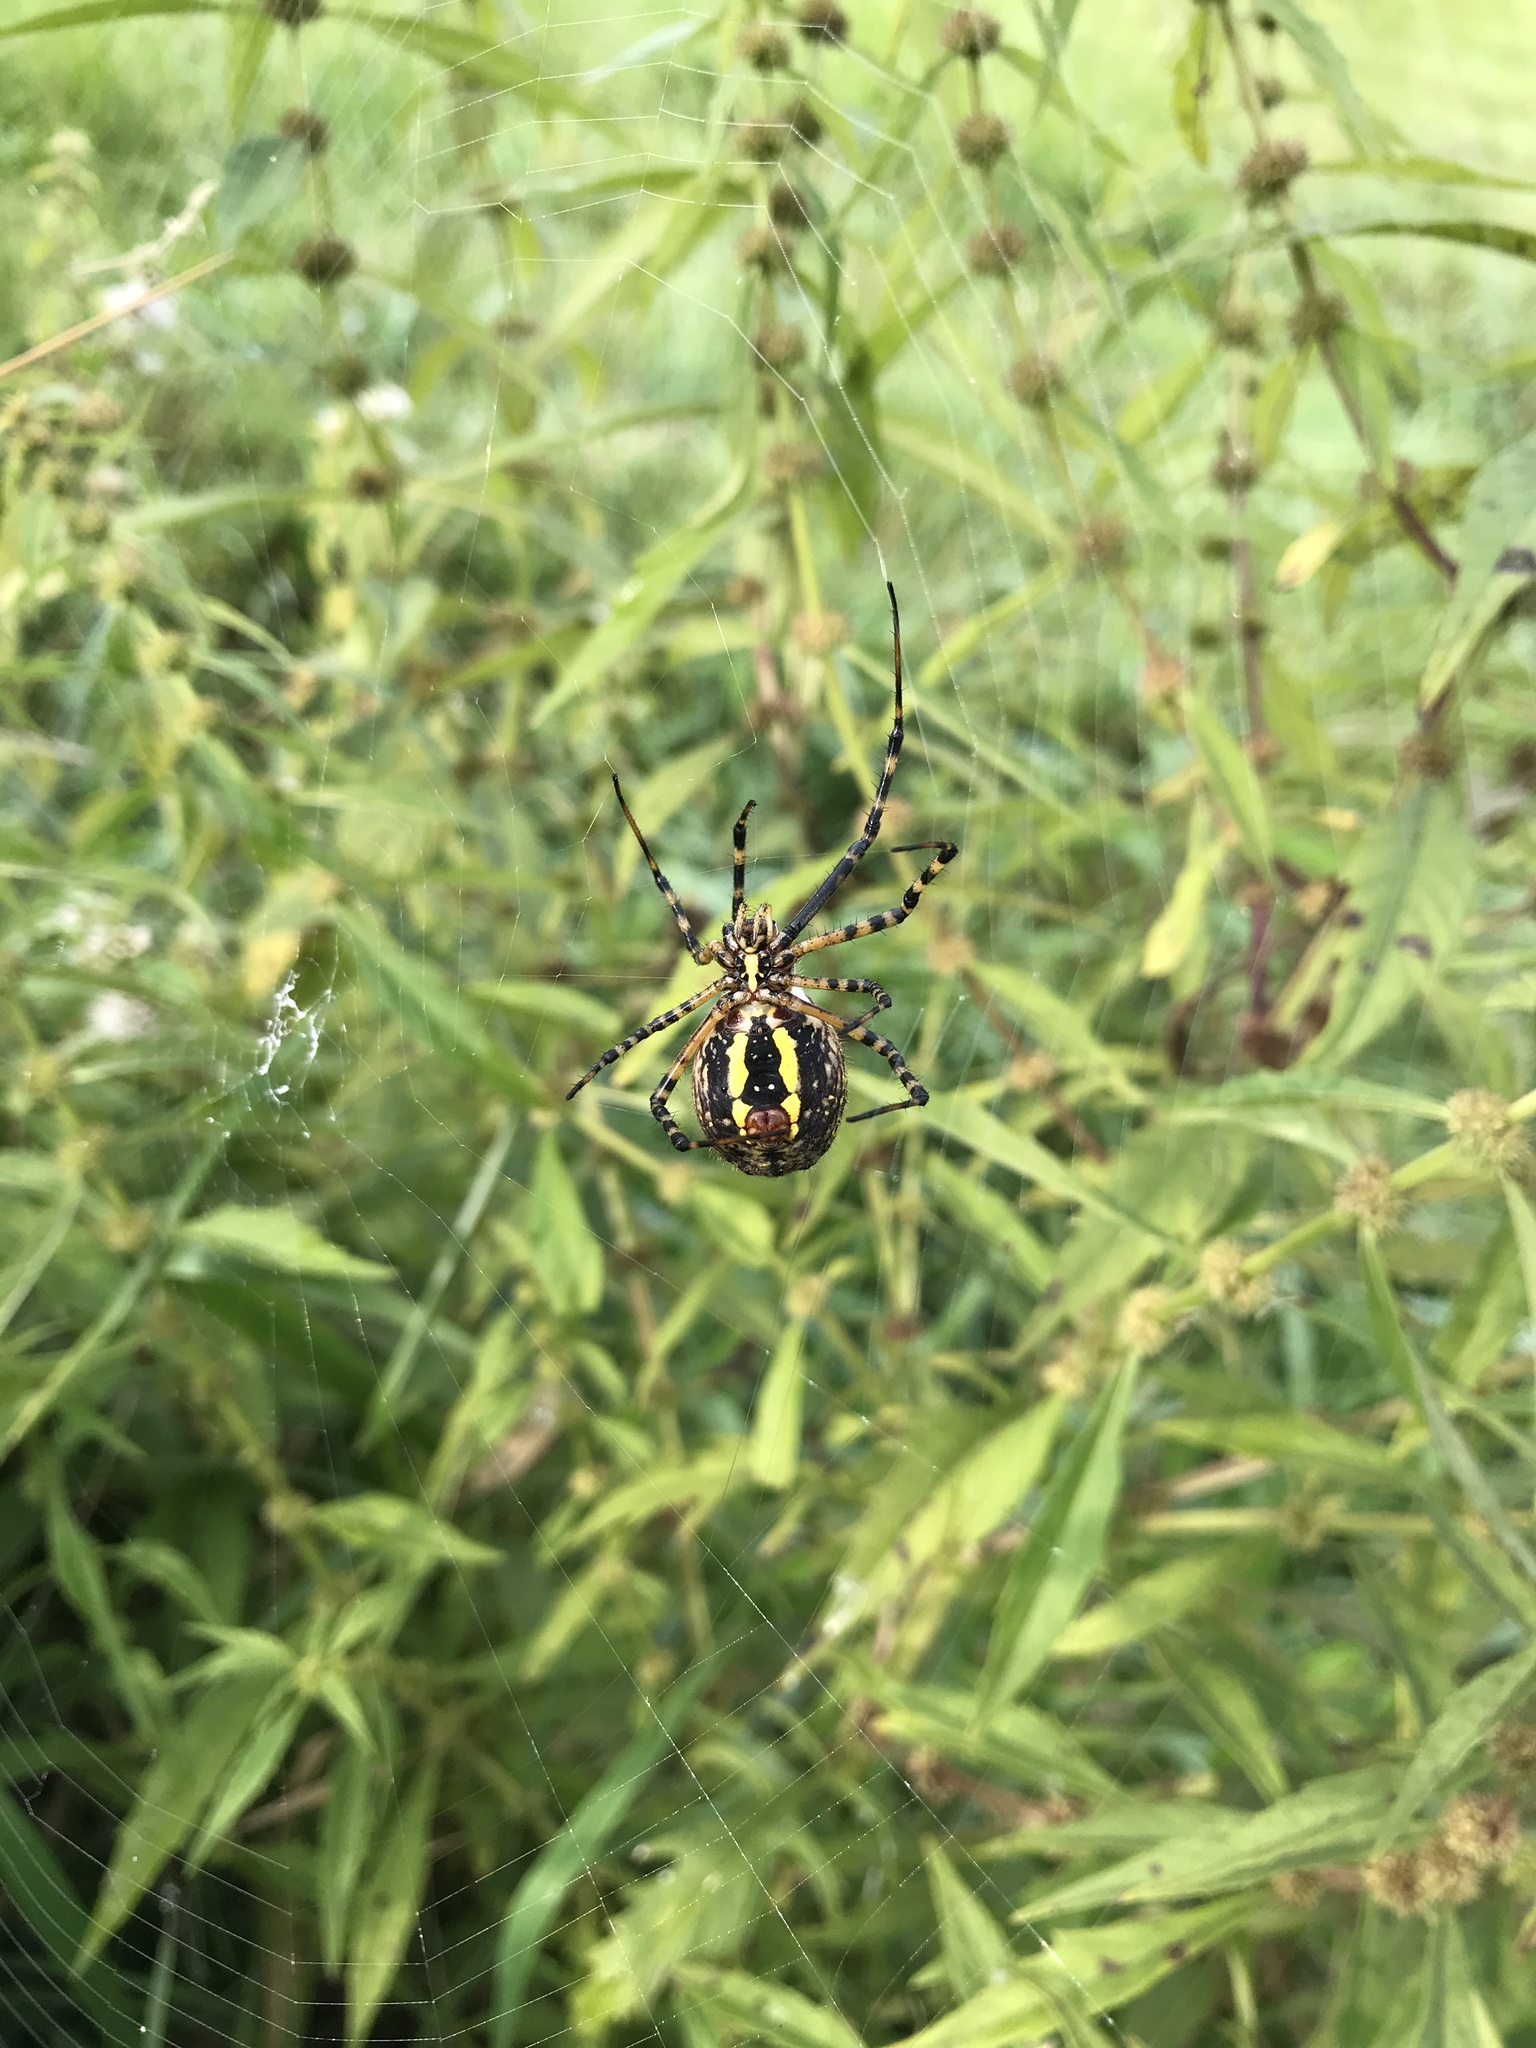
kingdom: Animalia
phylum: Arthropoda
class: Arachnida
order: Araneae
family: Araneidae
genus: Argiope
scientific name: Argiope trifasciata
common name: Banded garden spider
